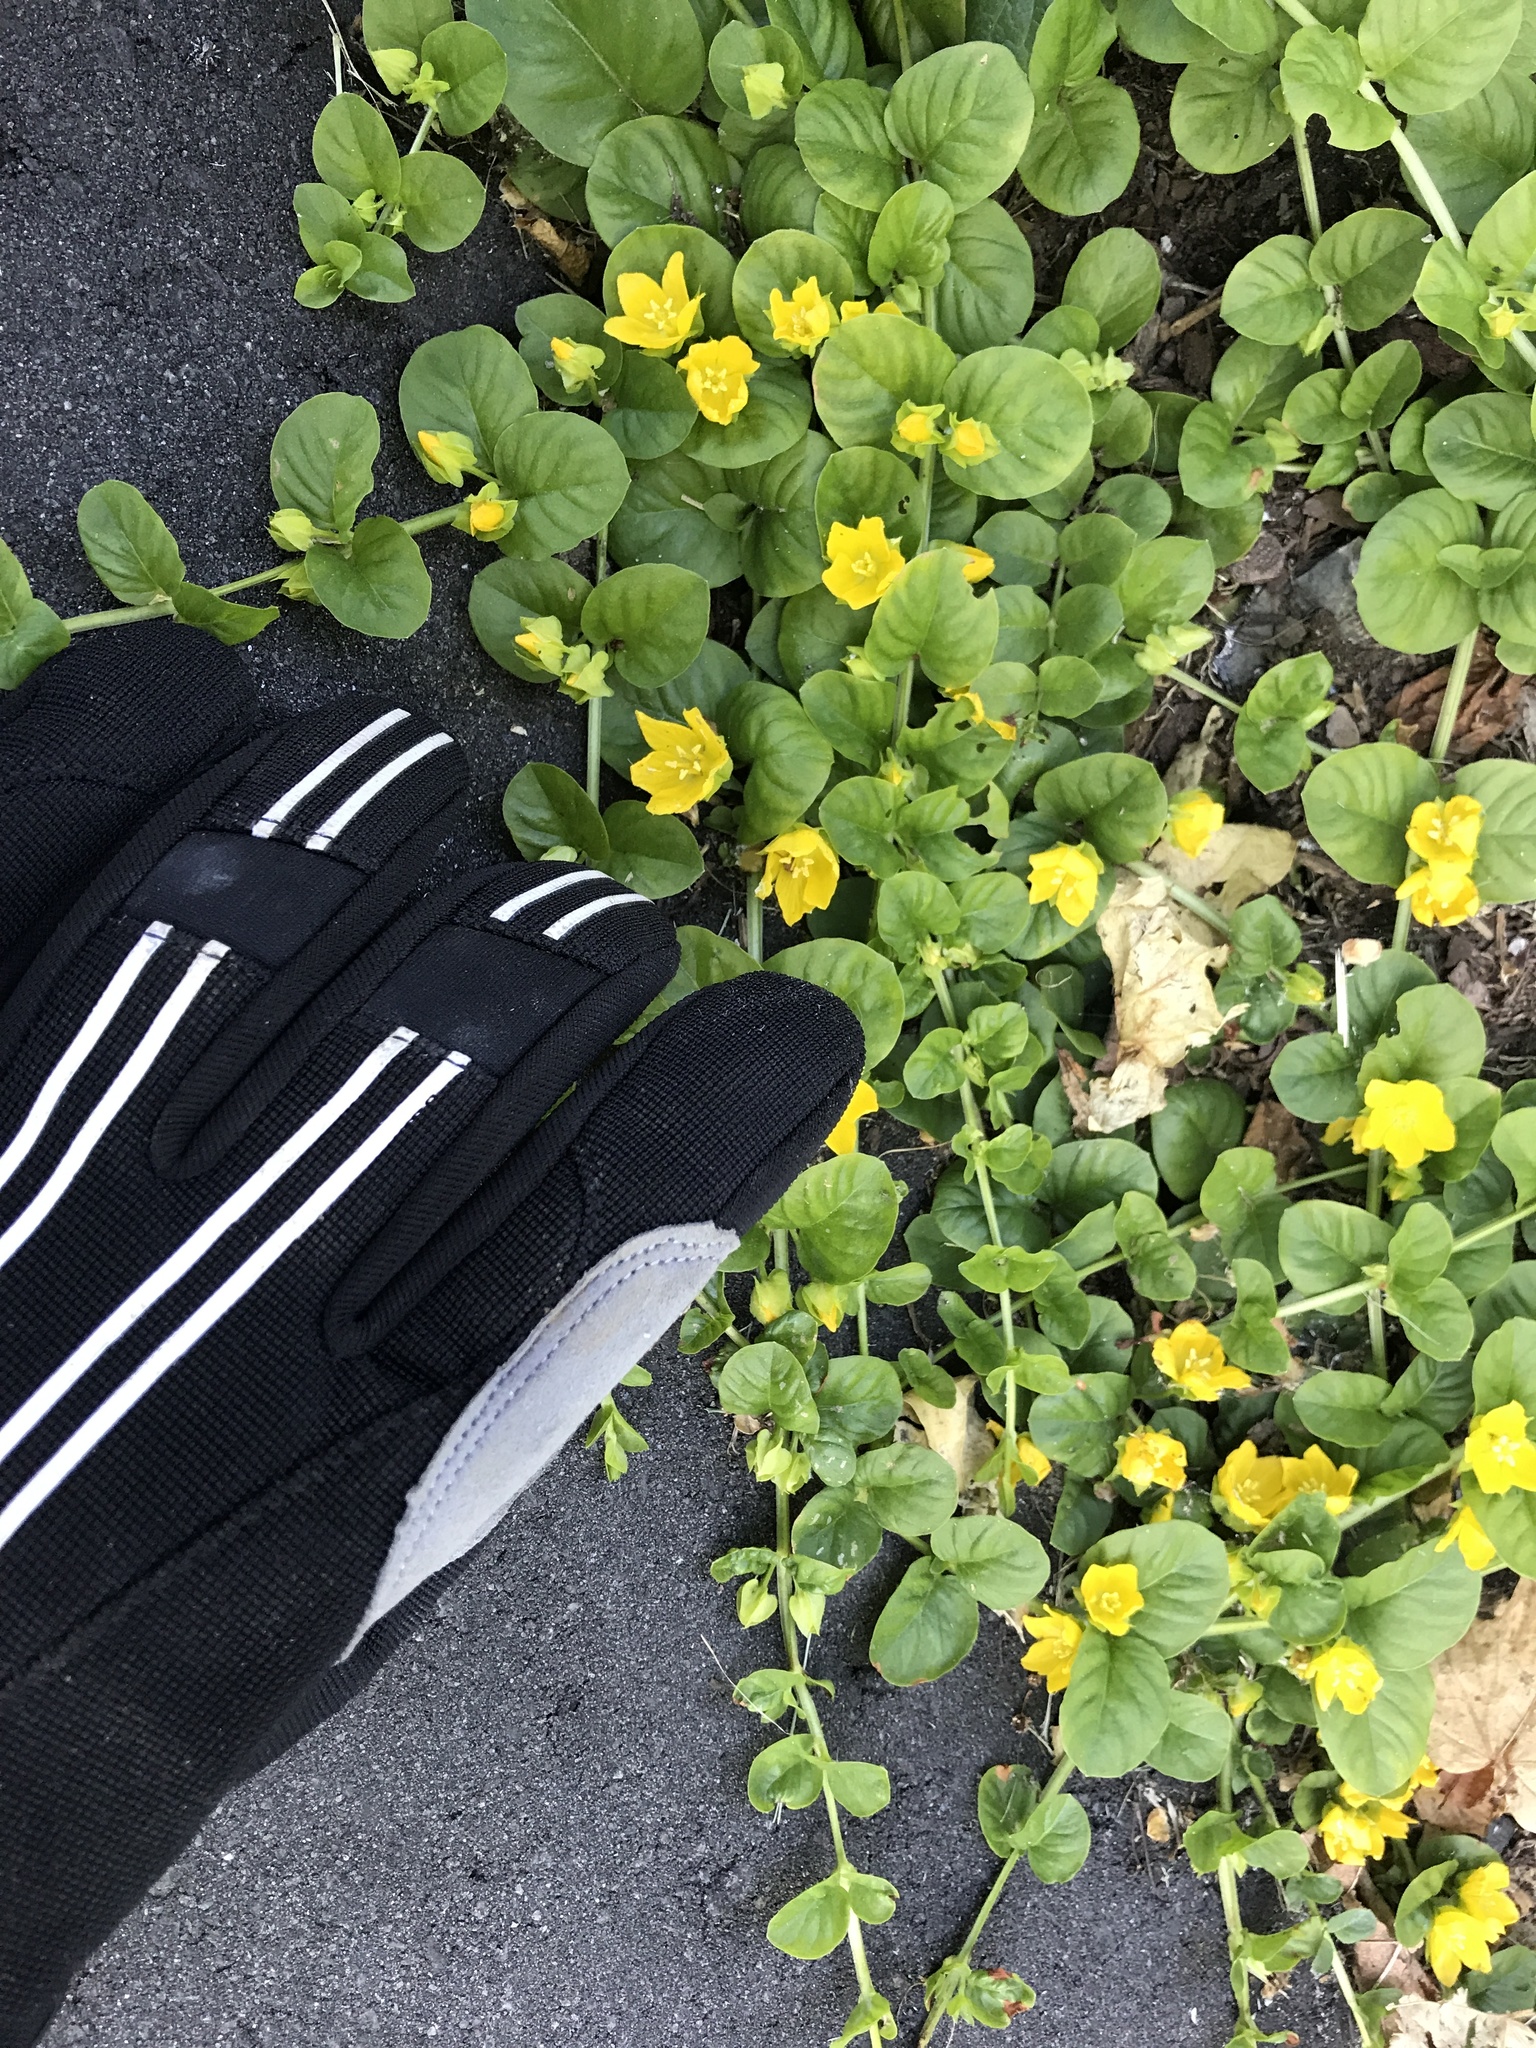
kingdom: Plantae
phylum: Tracheophyta
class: Magnoliopsida
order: Ericales
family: Primulaceae
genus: Lysimachia
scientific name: Lysimachia nummularia
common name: Moneywort
